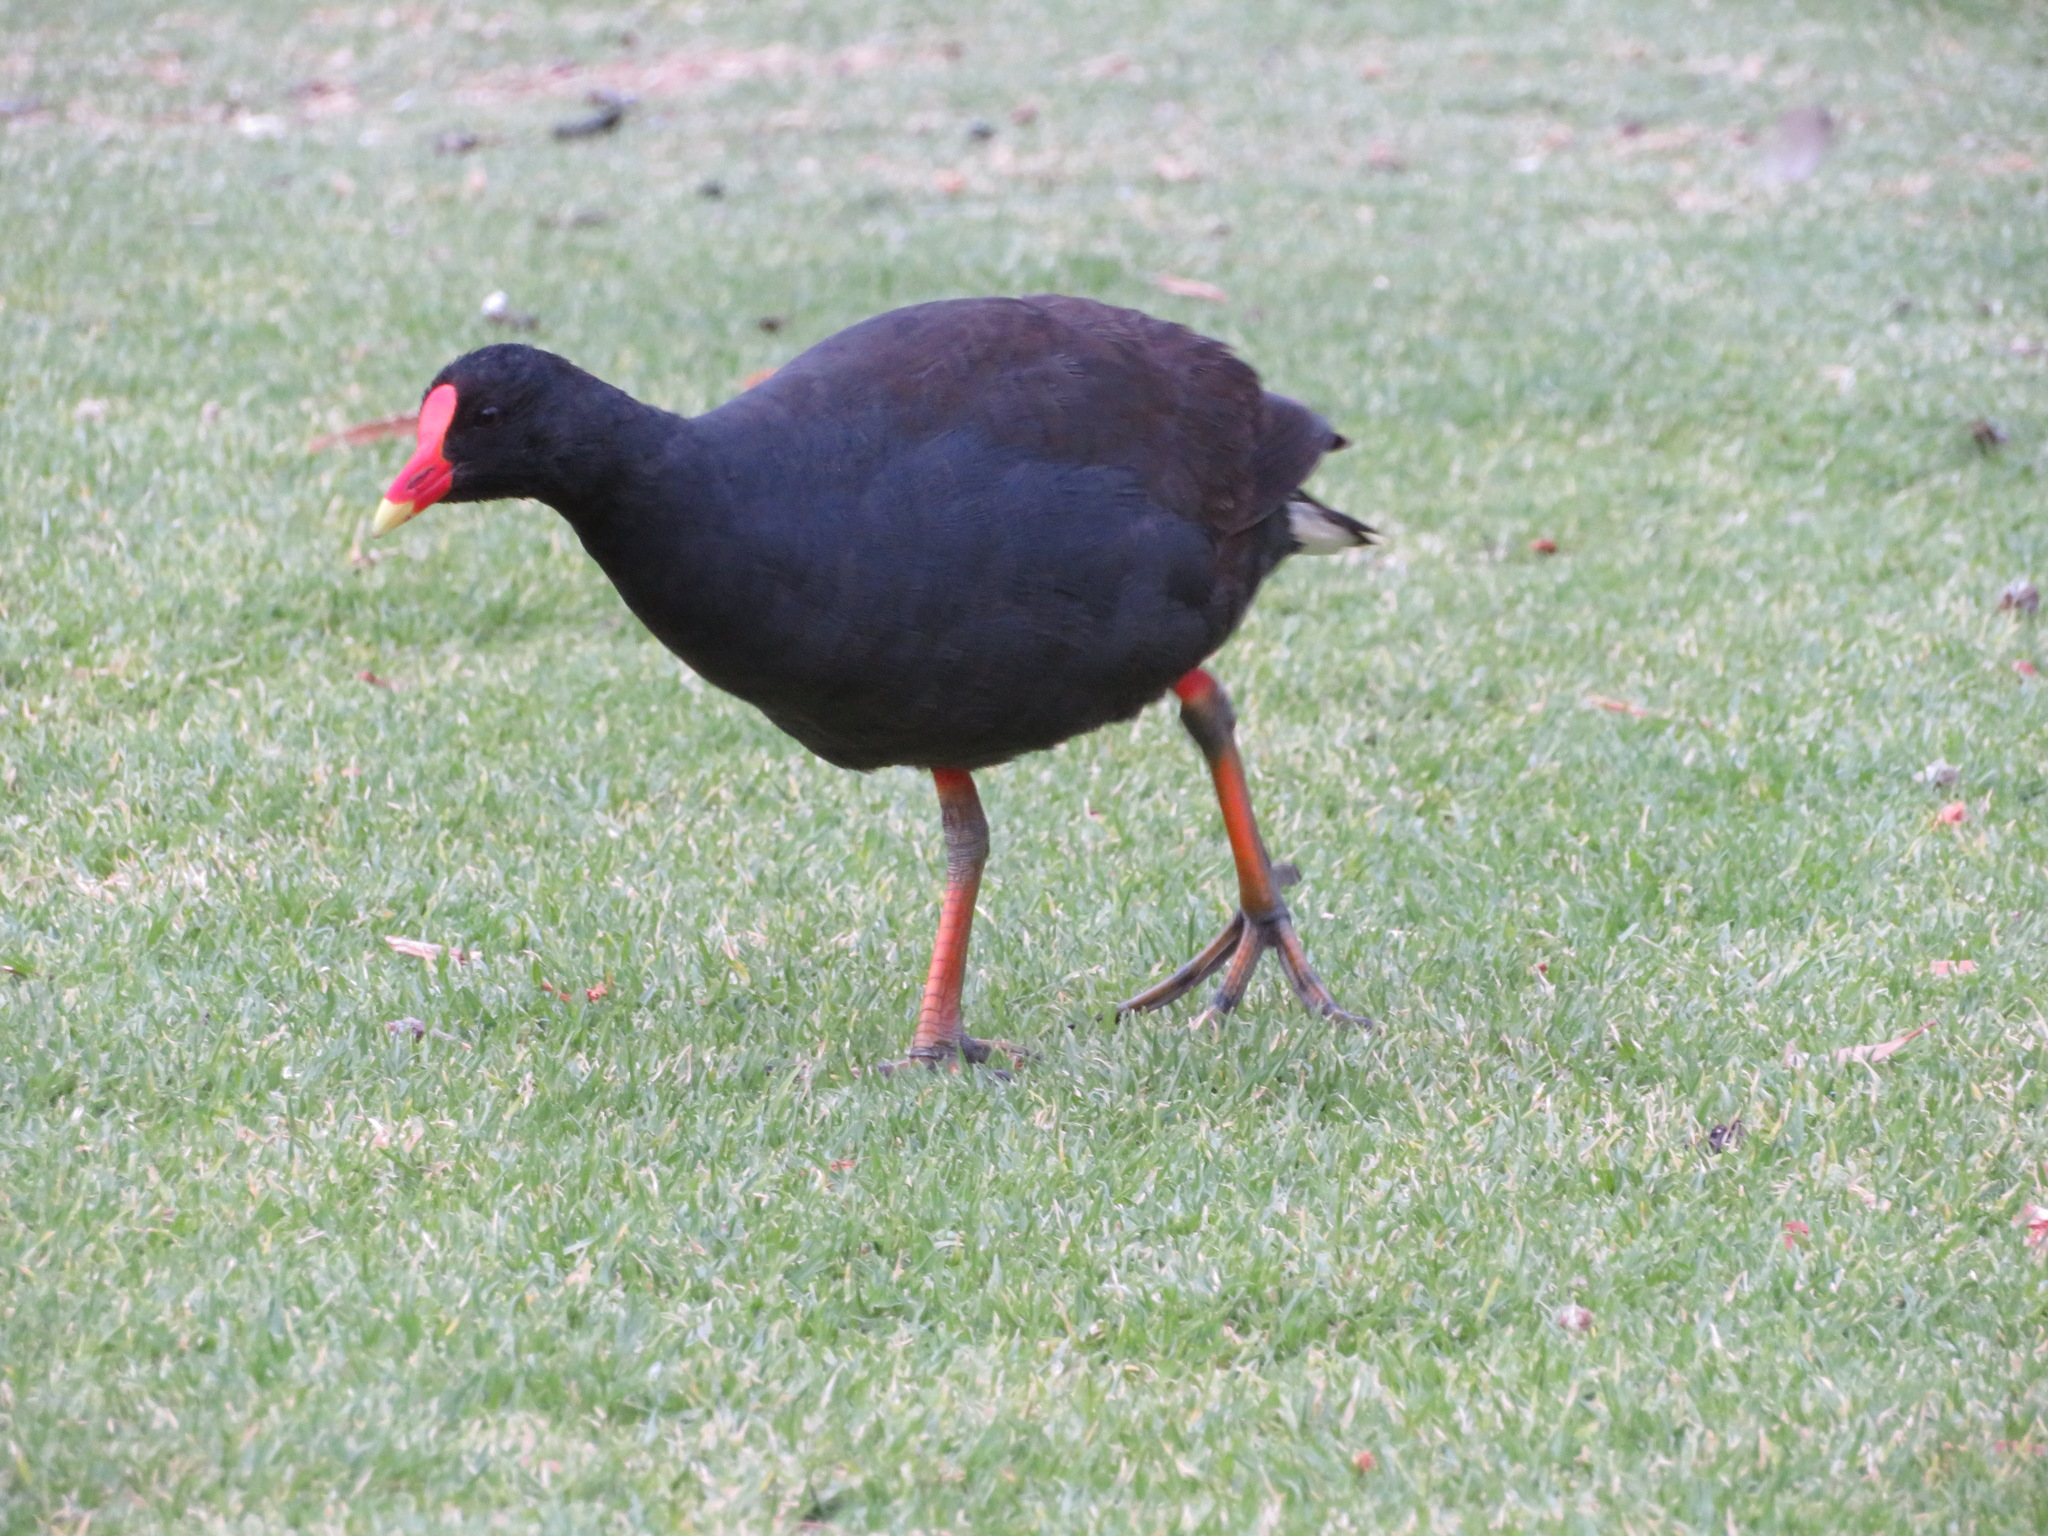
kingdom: Animalia
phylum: Chordata
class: Aves
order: Gruiformes
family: Rallidae
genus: Gallinula
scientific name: Gallinula tenebrosa
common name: Dusky moorhen
